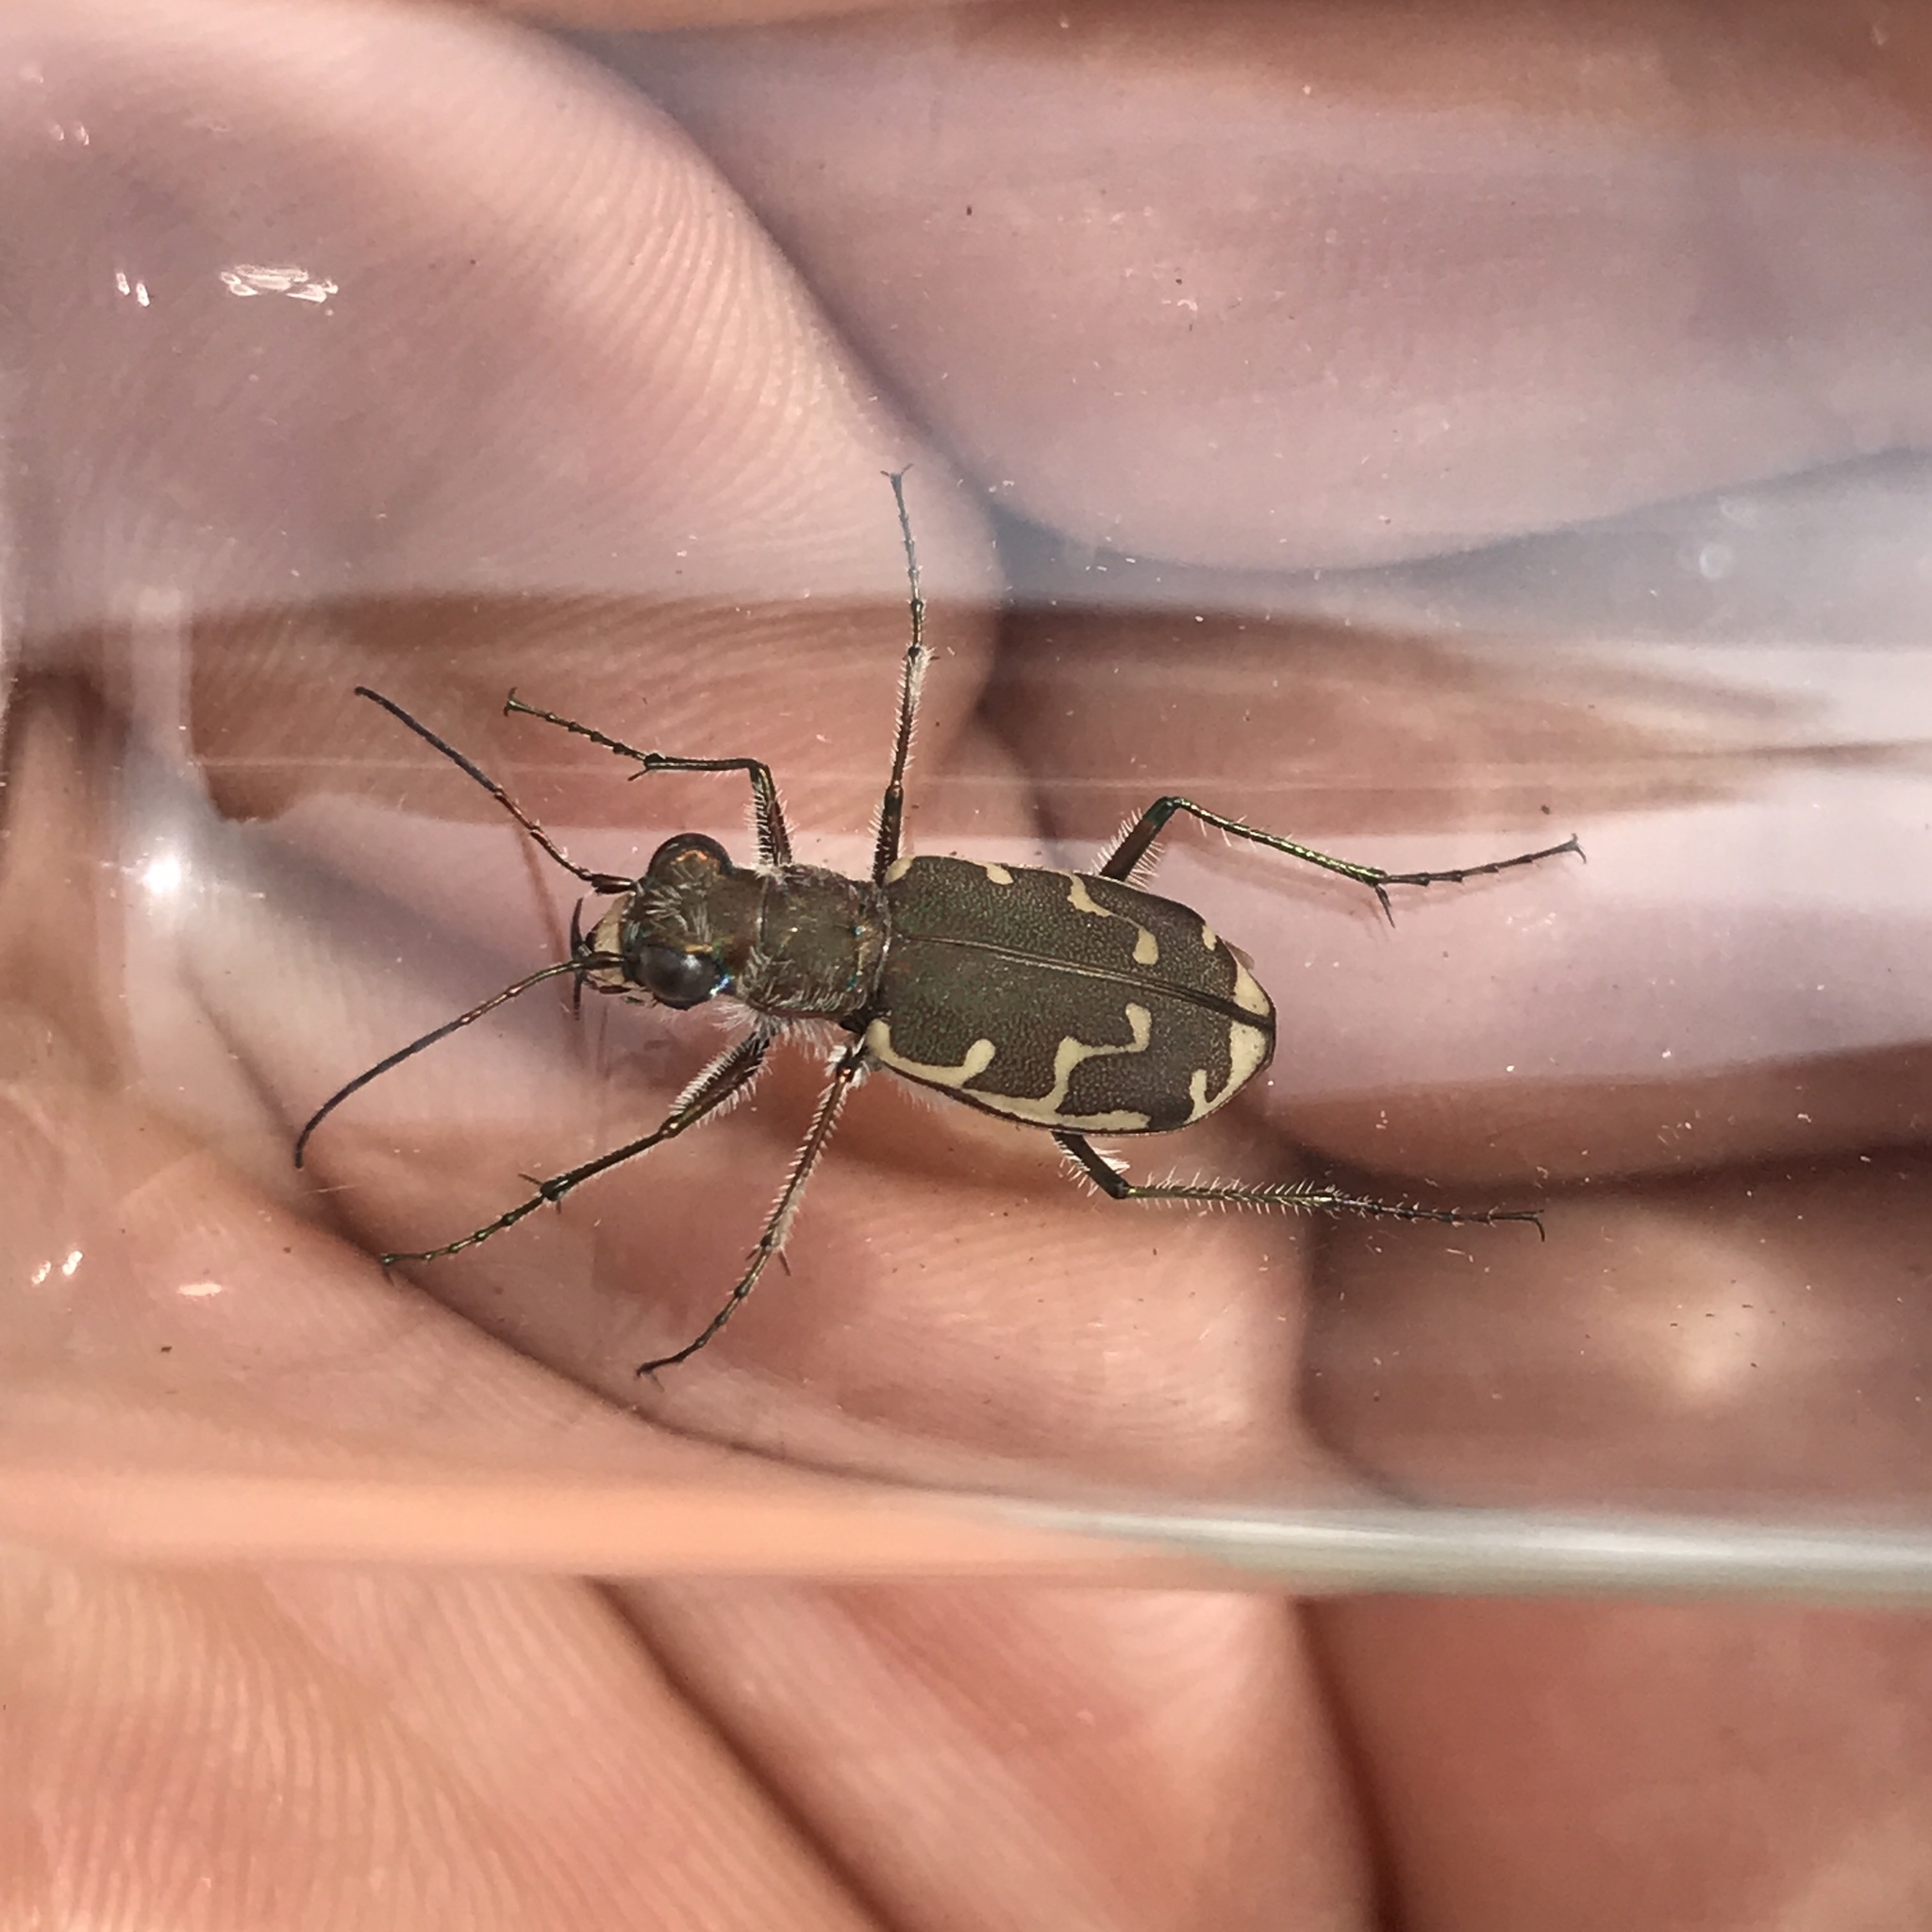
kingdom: Animalia
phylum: Arthropoda
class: Insecta
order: Coleoptera
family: Carabidae
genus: Cicindela
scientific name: Cicindela repanda
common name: Bronzed tiger beetle
